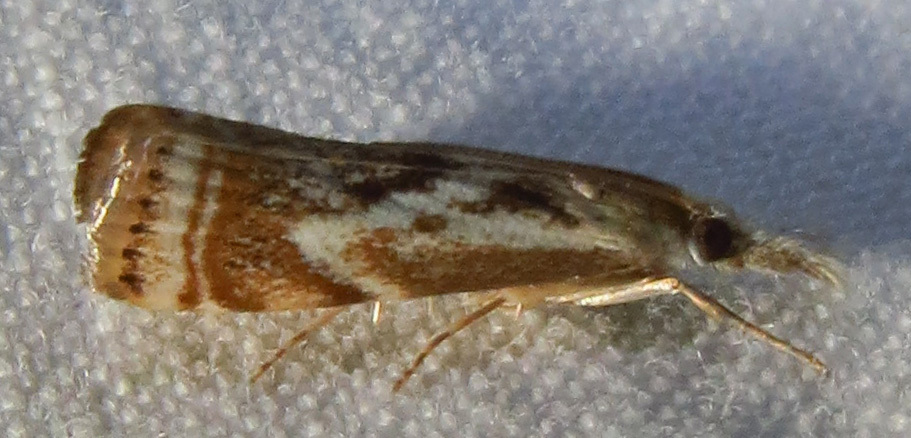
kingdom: Animalia
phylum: Arthropoda
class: Insecta
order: Lepidoptera
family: Crambidae
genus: Microcrambus
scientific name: Microcrambus elegans
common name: Elegant grass-veneer
